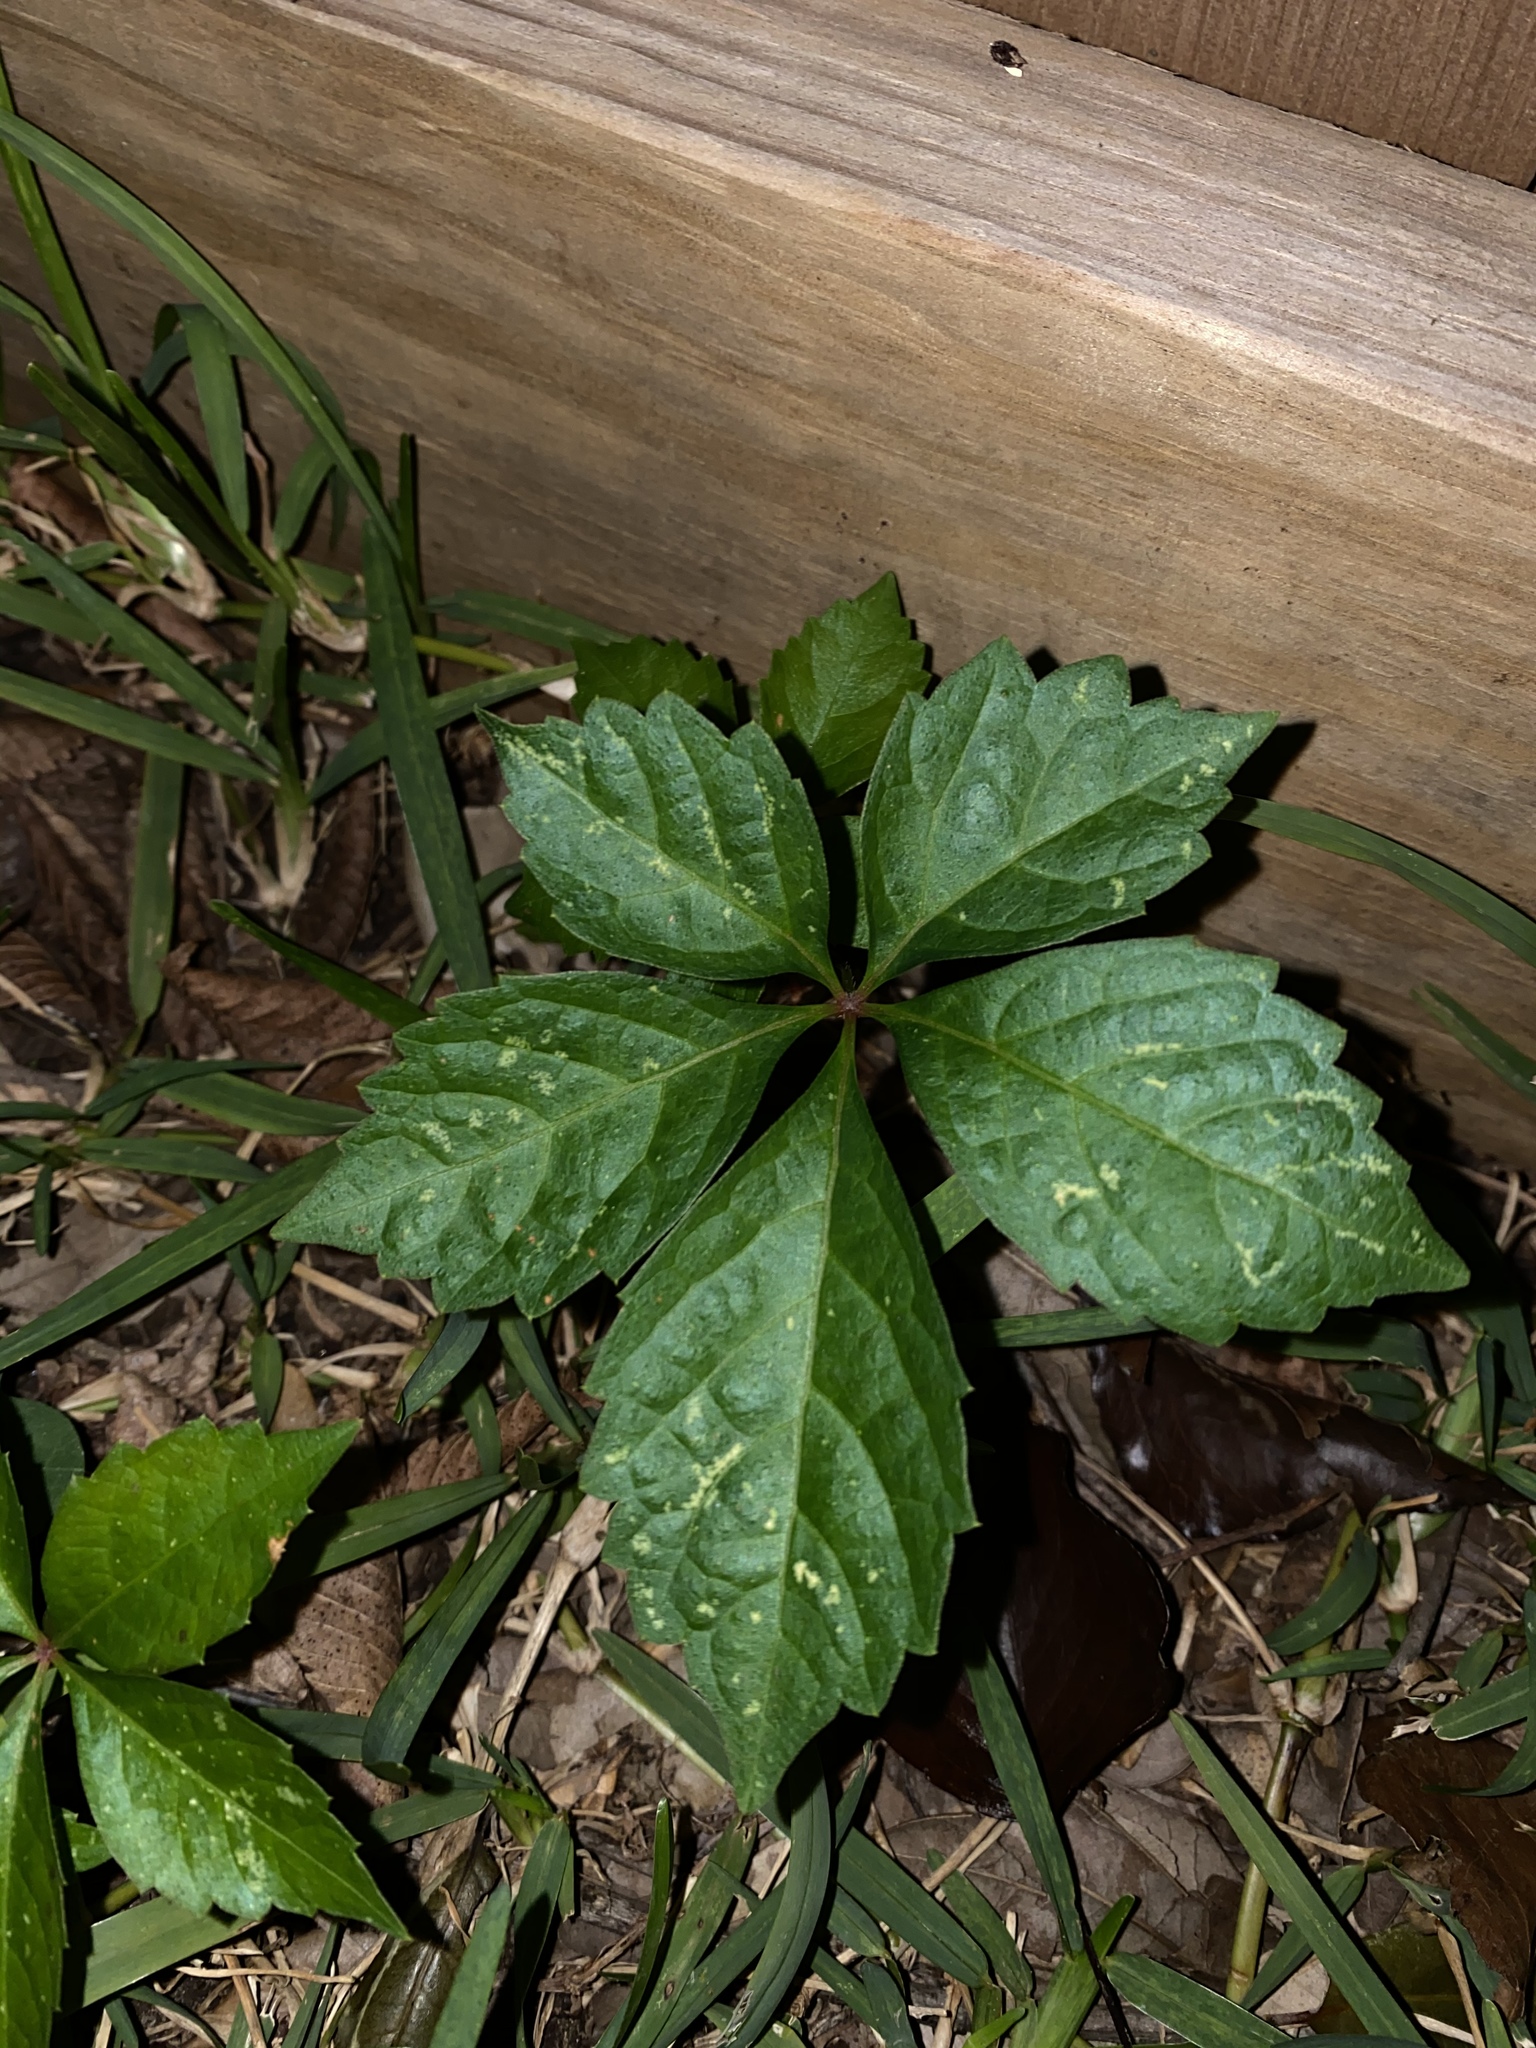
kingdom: Plantae
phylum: Tracheophyta
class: Magnoliopsida
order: Vitales
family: Vitaceae
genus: Parthenocissus
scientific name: Parthenocissus quinquefolia
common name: Virginia-creeper
